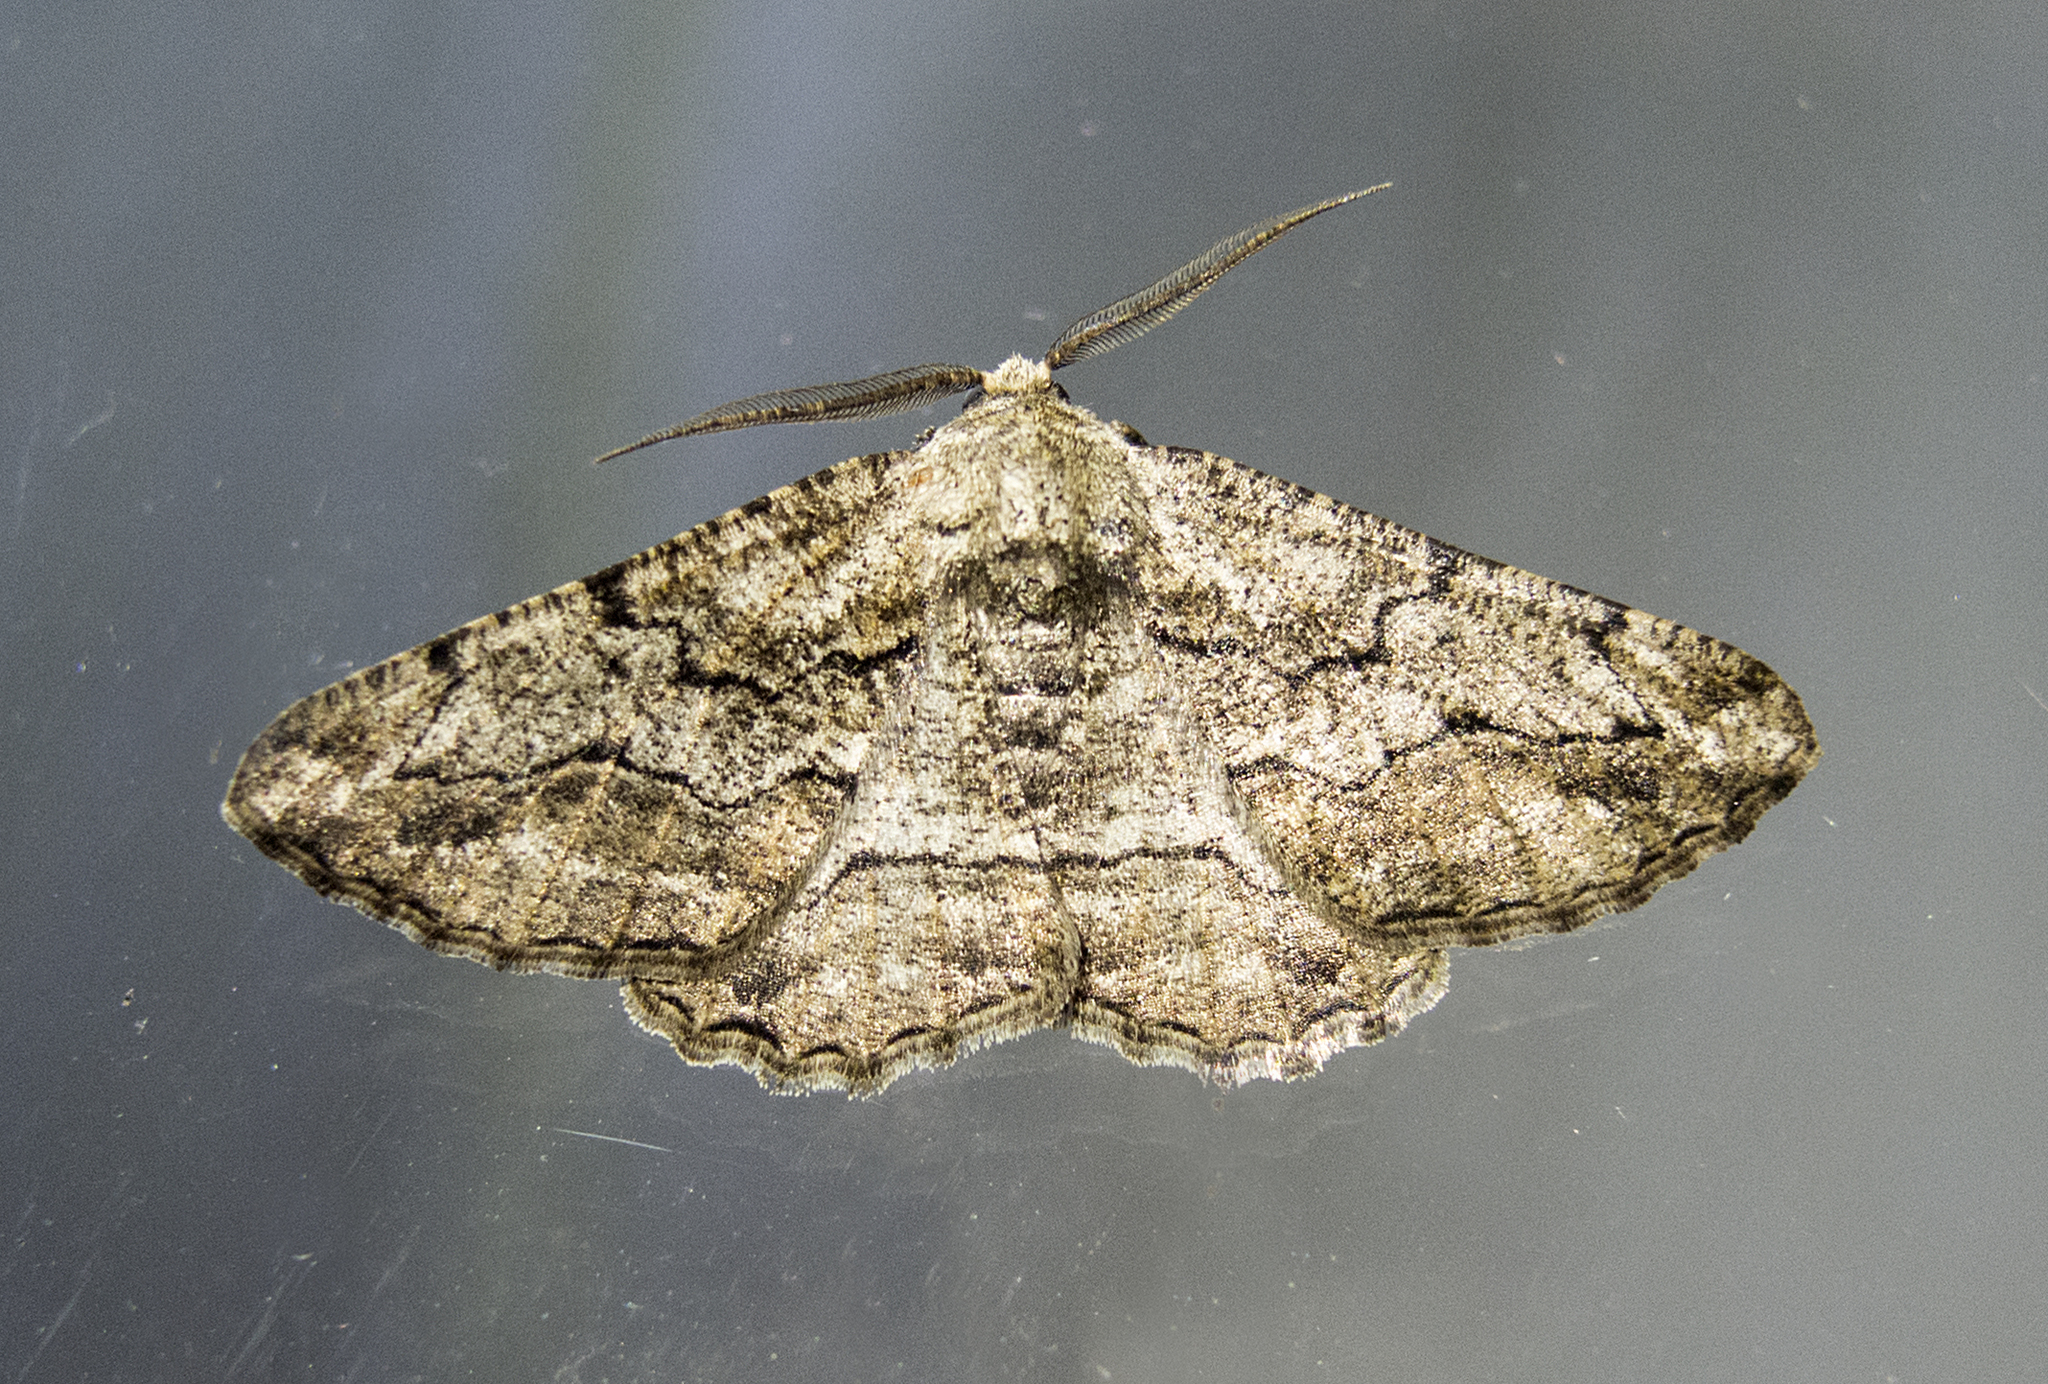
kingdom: Animalia
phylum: Arthropoda
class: Insecta
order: Lepidoptera
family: Geometridae
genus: Synopsia
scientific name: Synopsia sociaria
